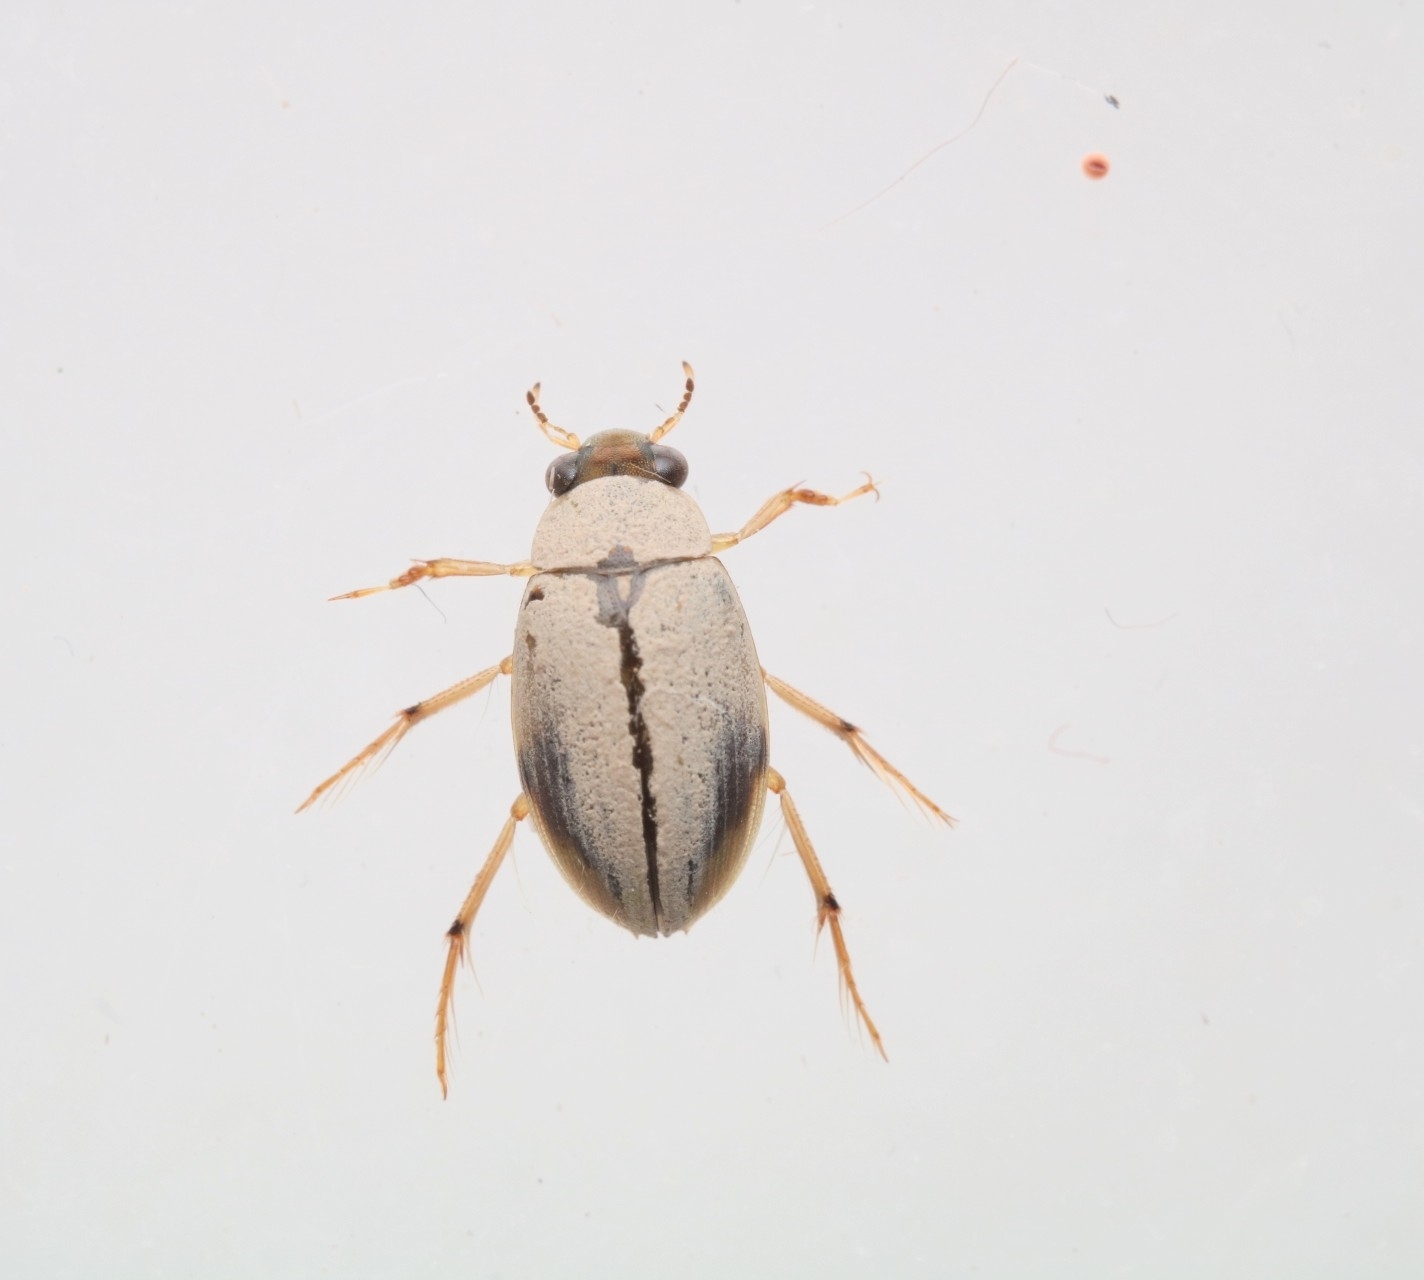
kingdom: Animalia
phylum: Arthropoda
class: Insecta
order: Coleoptera
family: Hydrophilidae
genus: Berosus
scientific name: Berosus miles
